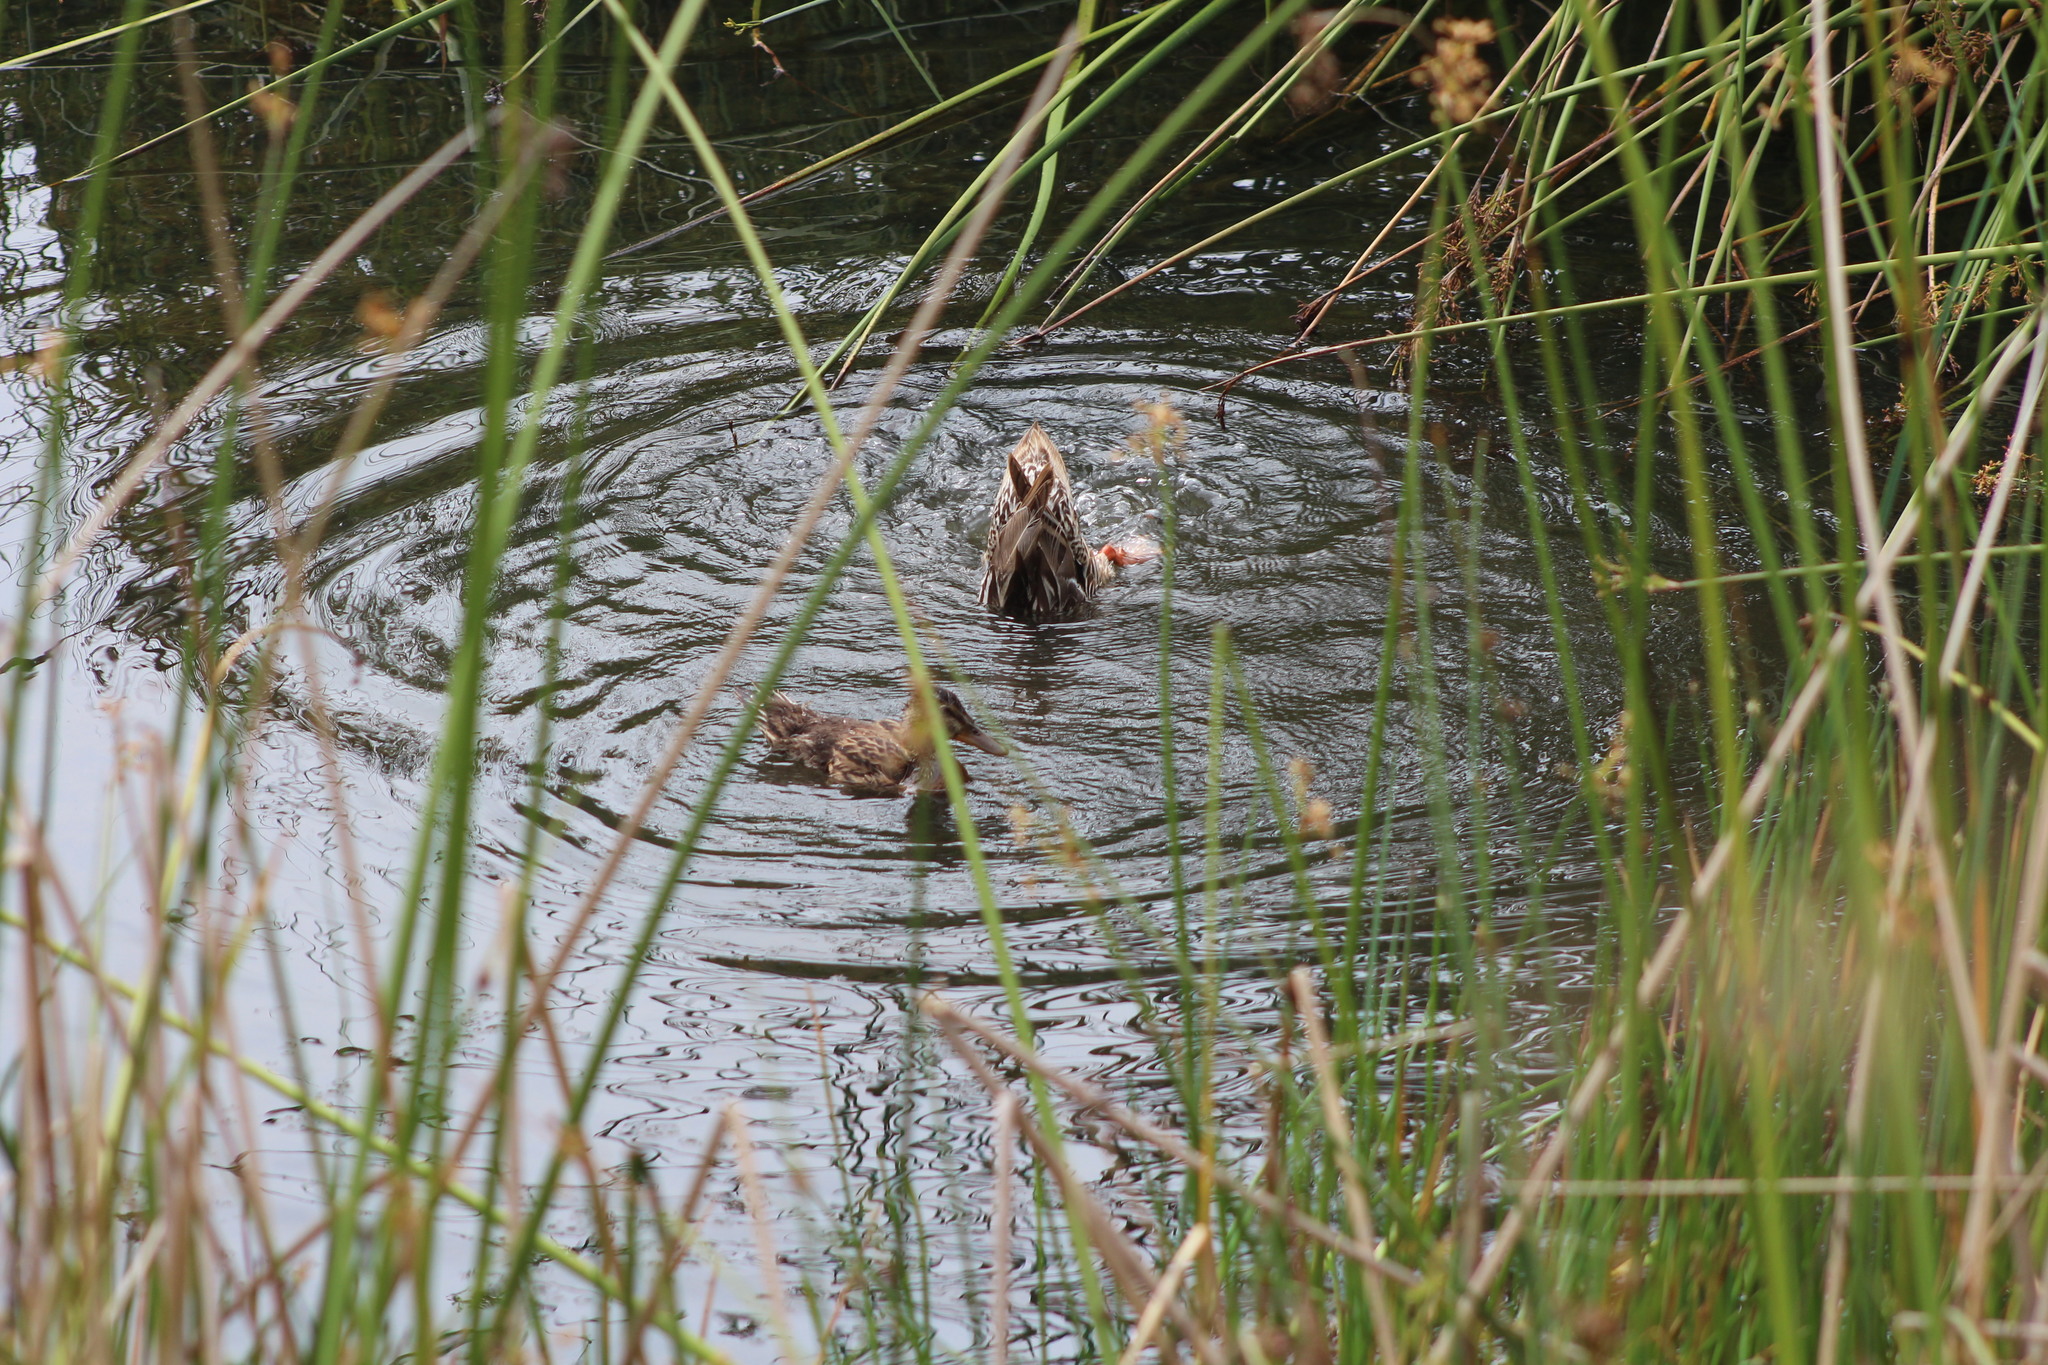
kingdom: Animalia
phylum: Chordata
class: Aves
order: Anseriformes
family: Anatidae
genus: Anas
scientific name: Anas platyrhynchos
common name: Mallard
